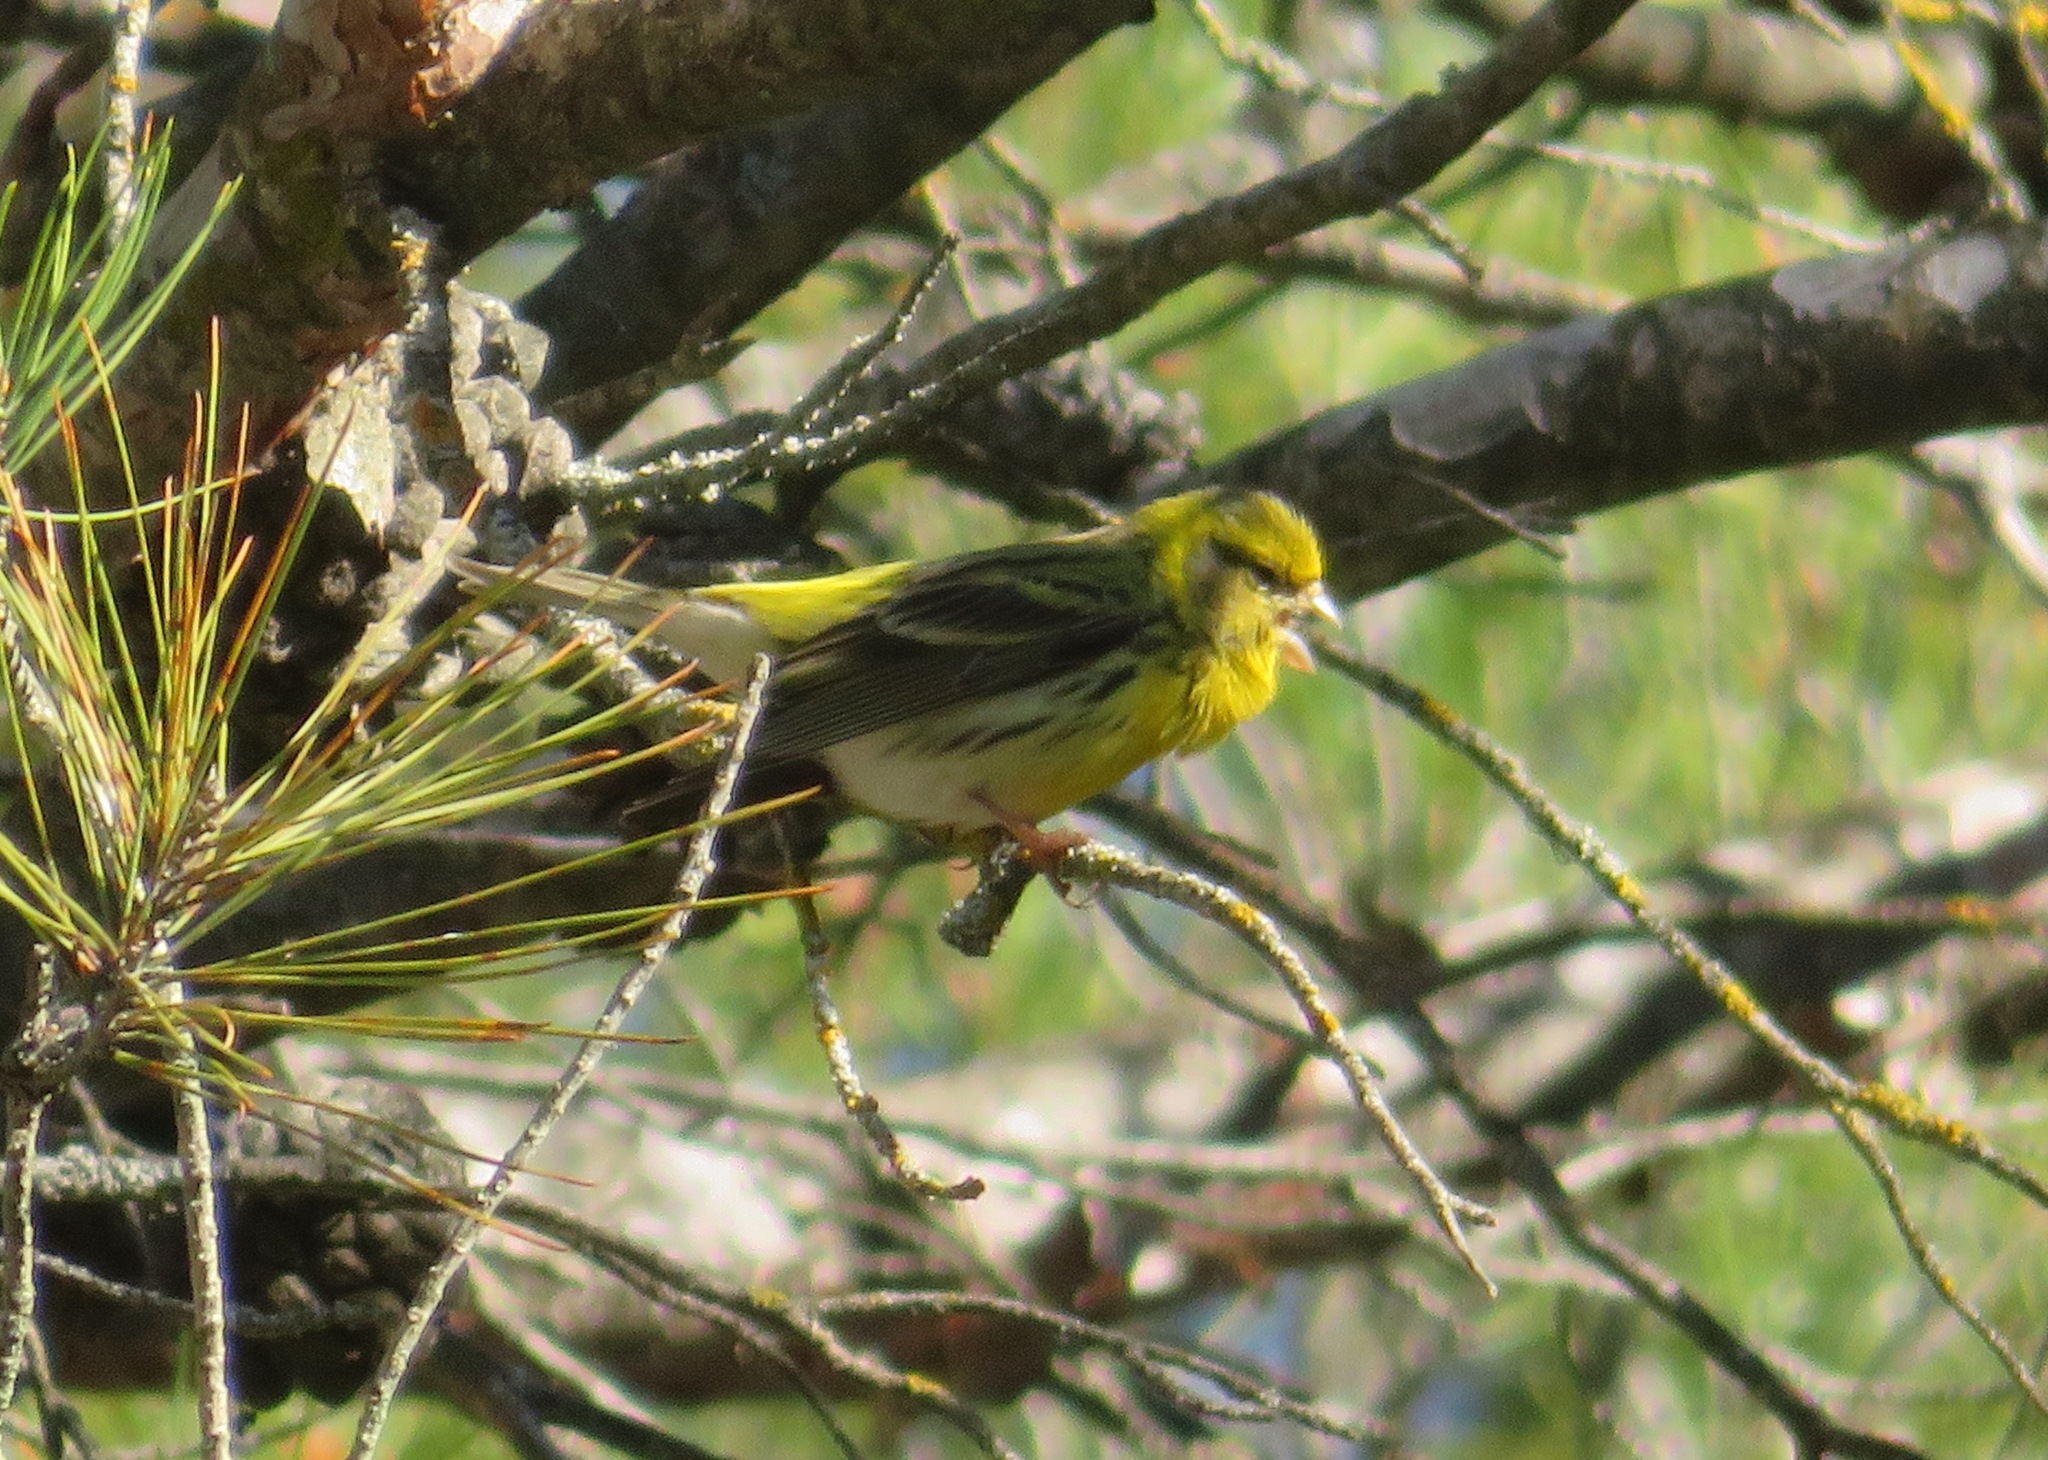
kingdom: Animalia
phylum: Chordata
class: Aves
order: Passeriformes
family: Fringillidae
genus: Serinus
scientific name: Serinus serinus
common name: European serin
